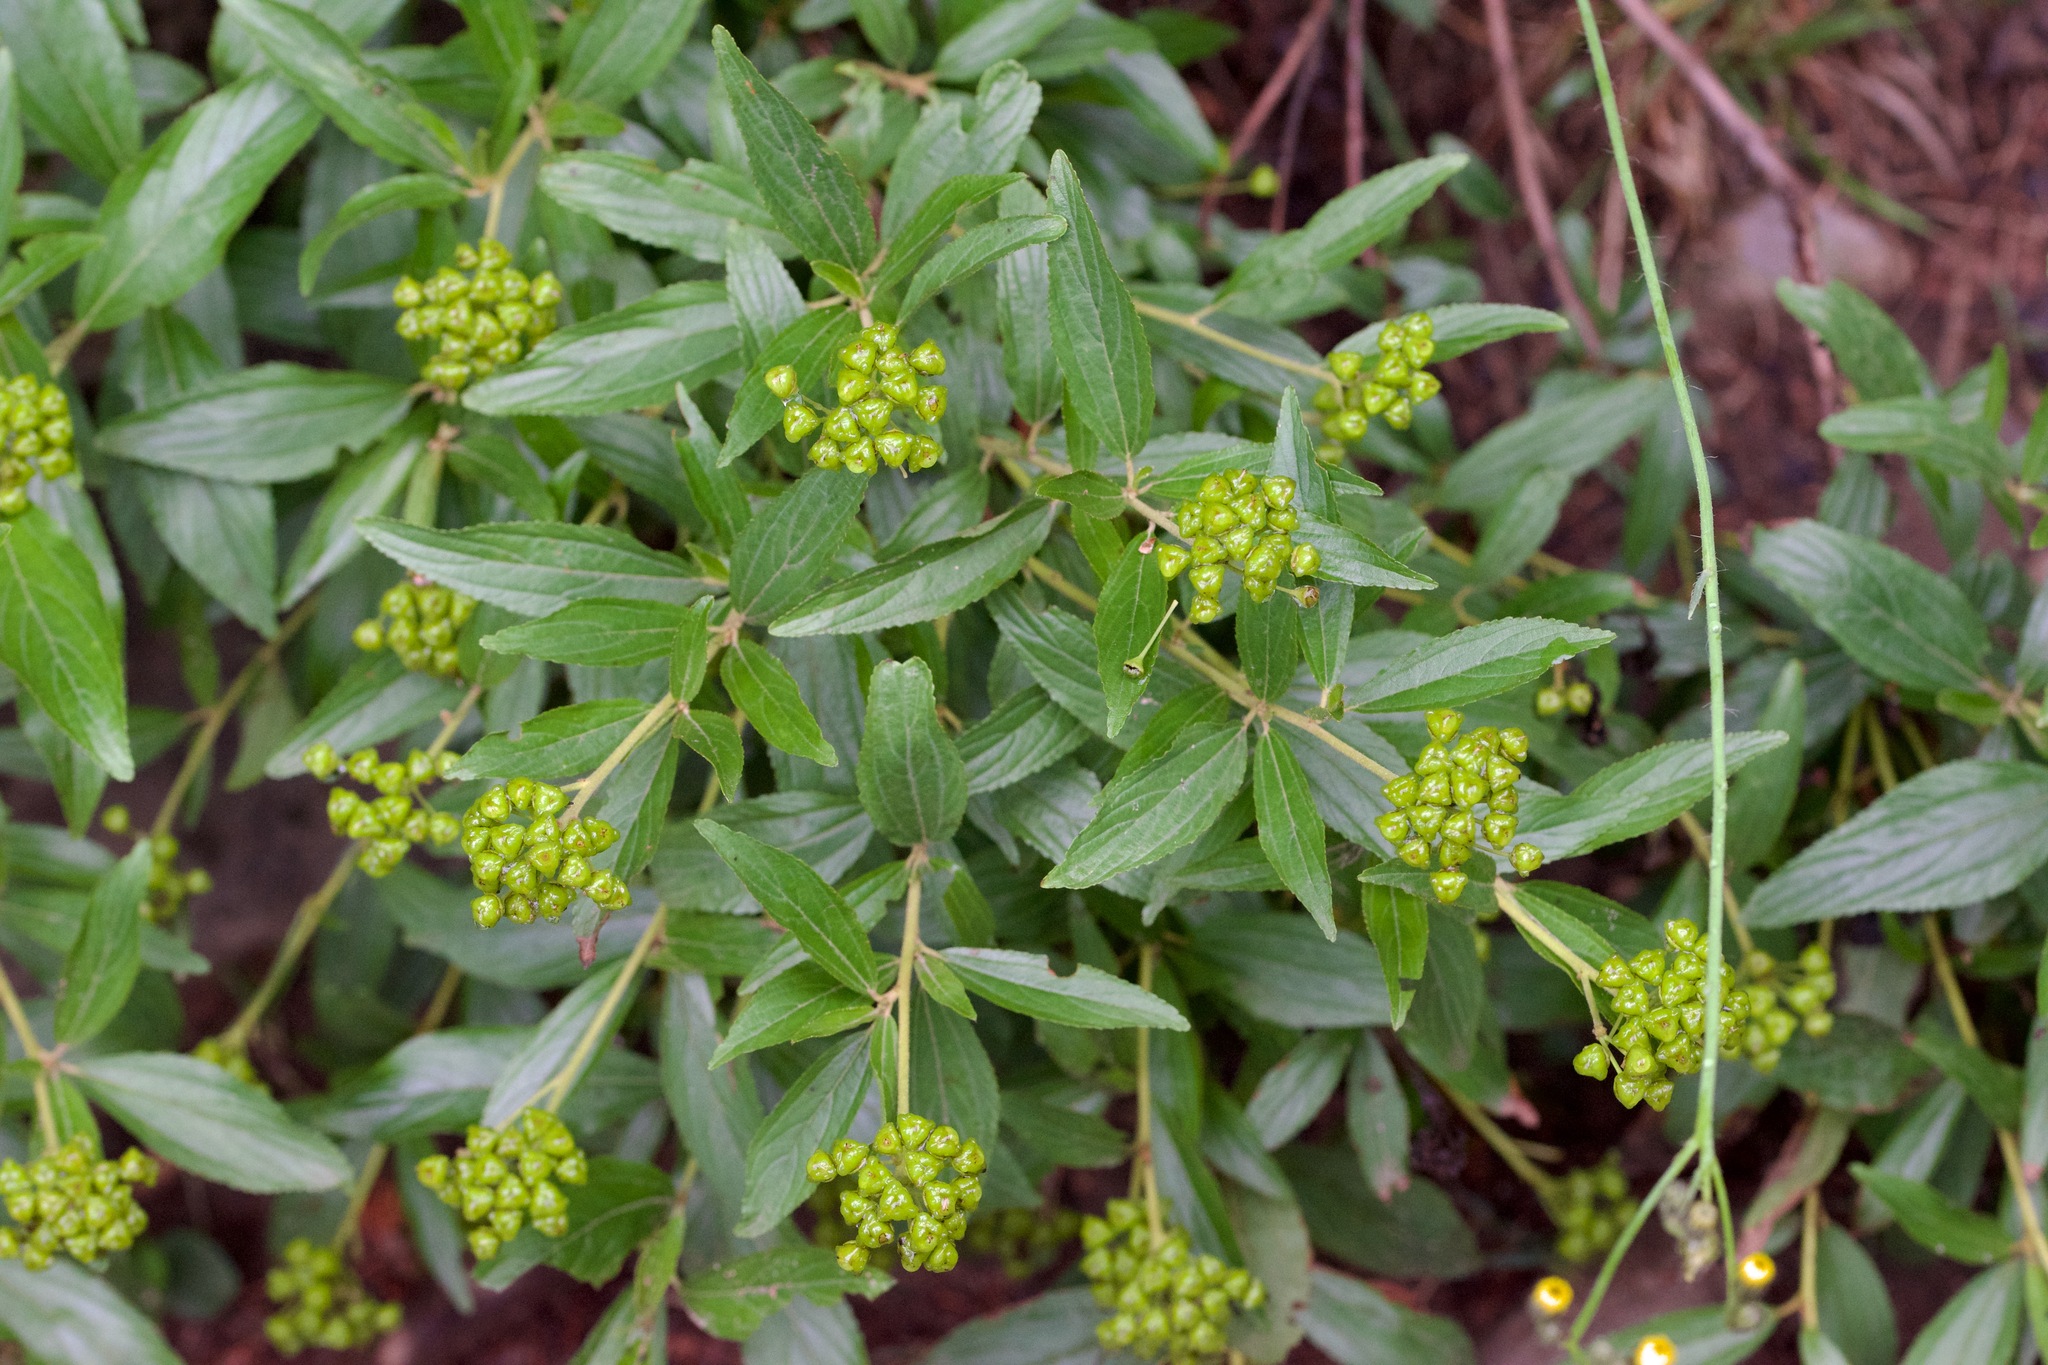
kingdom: Plantae
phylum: Tracheophyta
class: Magnoliopsida
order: Rosales
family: Rhamnaceae
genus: Ceanothus
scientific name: Ceanothus herbaceus
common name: Inland ceanothus
